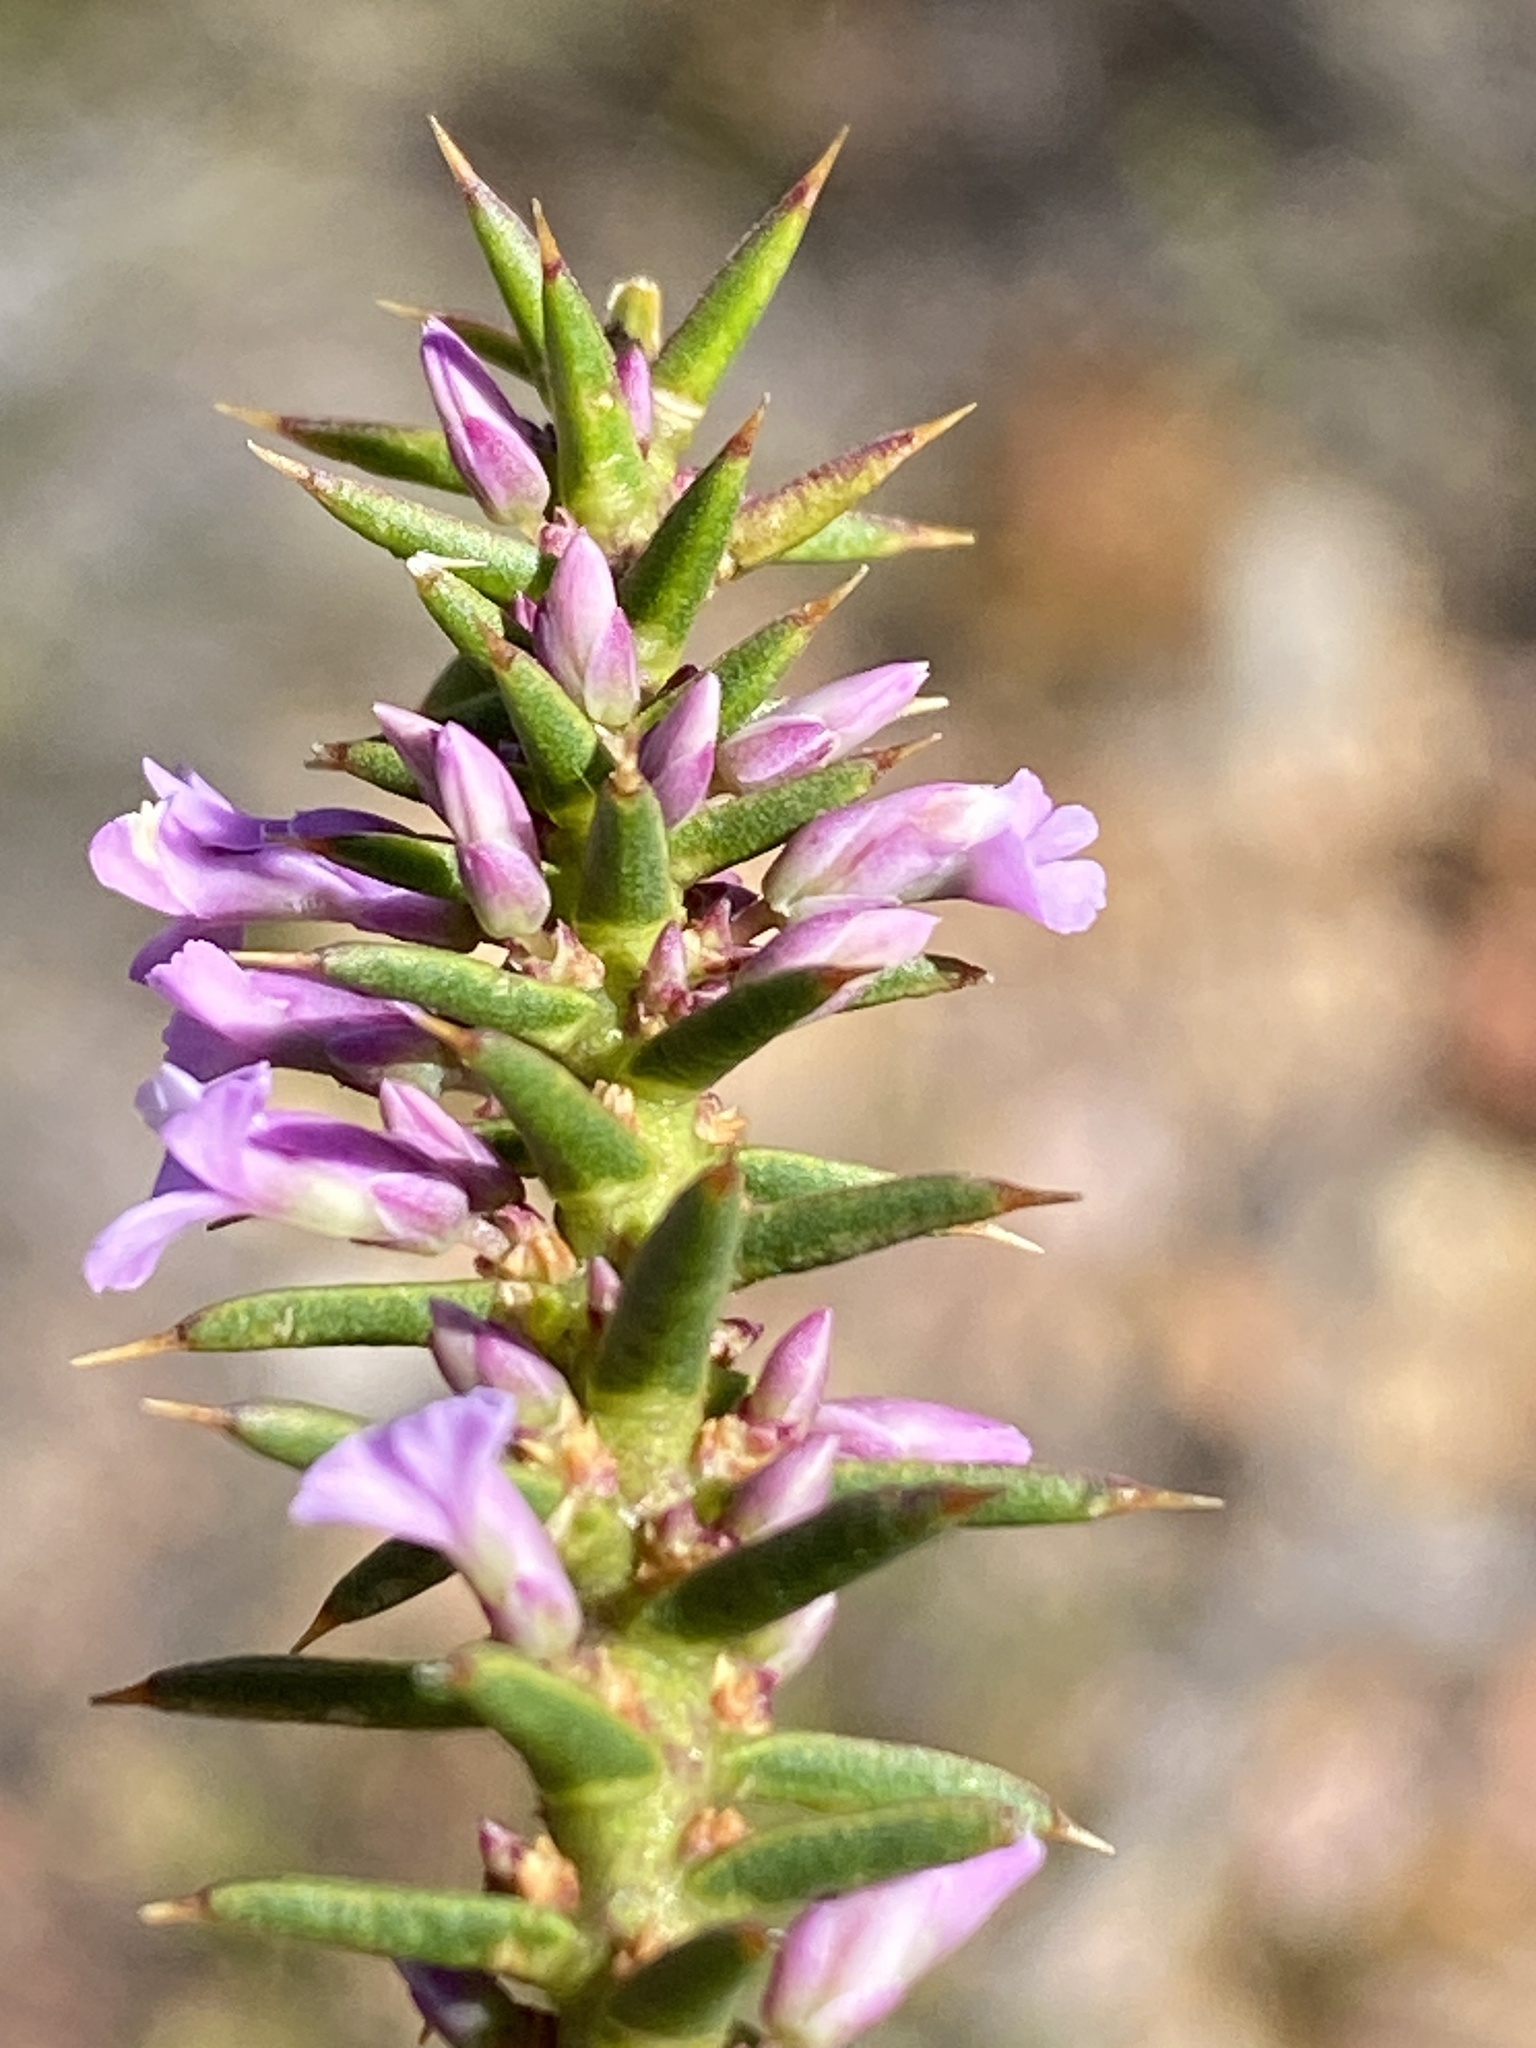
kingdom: Plantae
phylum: Tracheophyta
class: Magnoliopsida
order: Fabales
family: Polygalaceae
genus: Muraltia
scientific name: Muraltia juniperifolia
